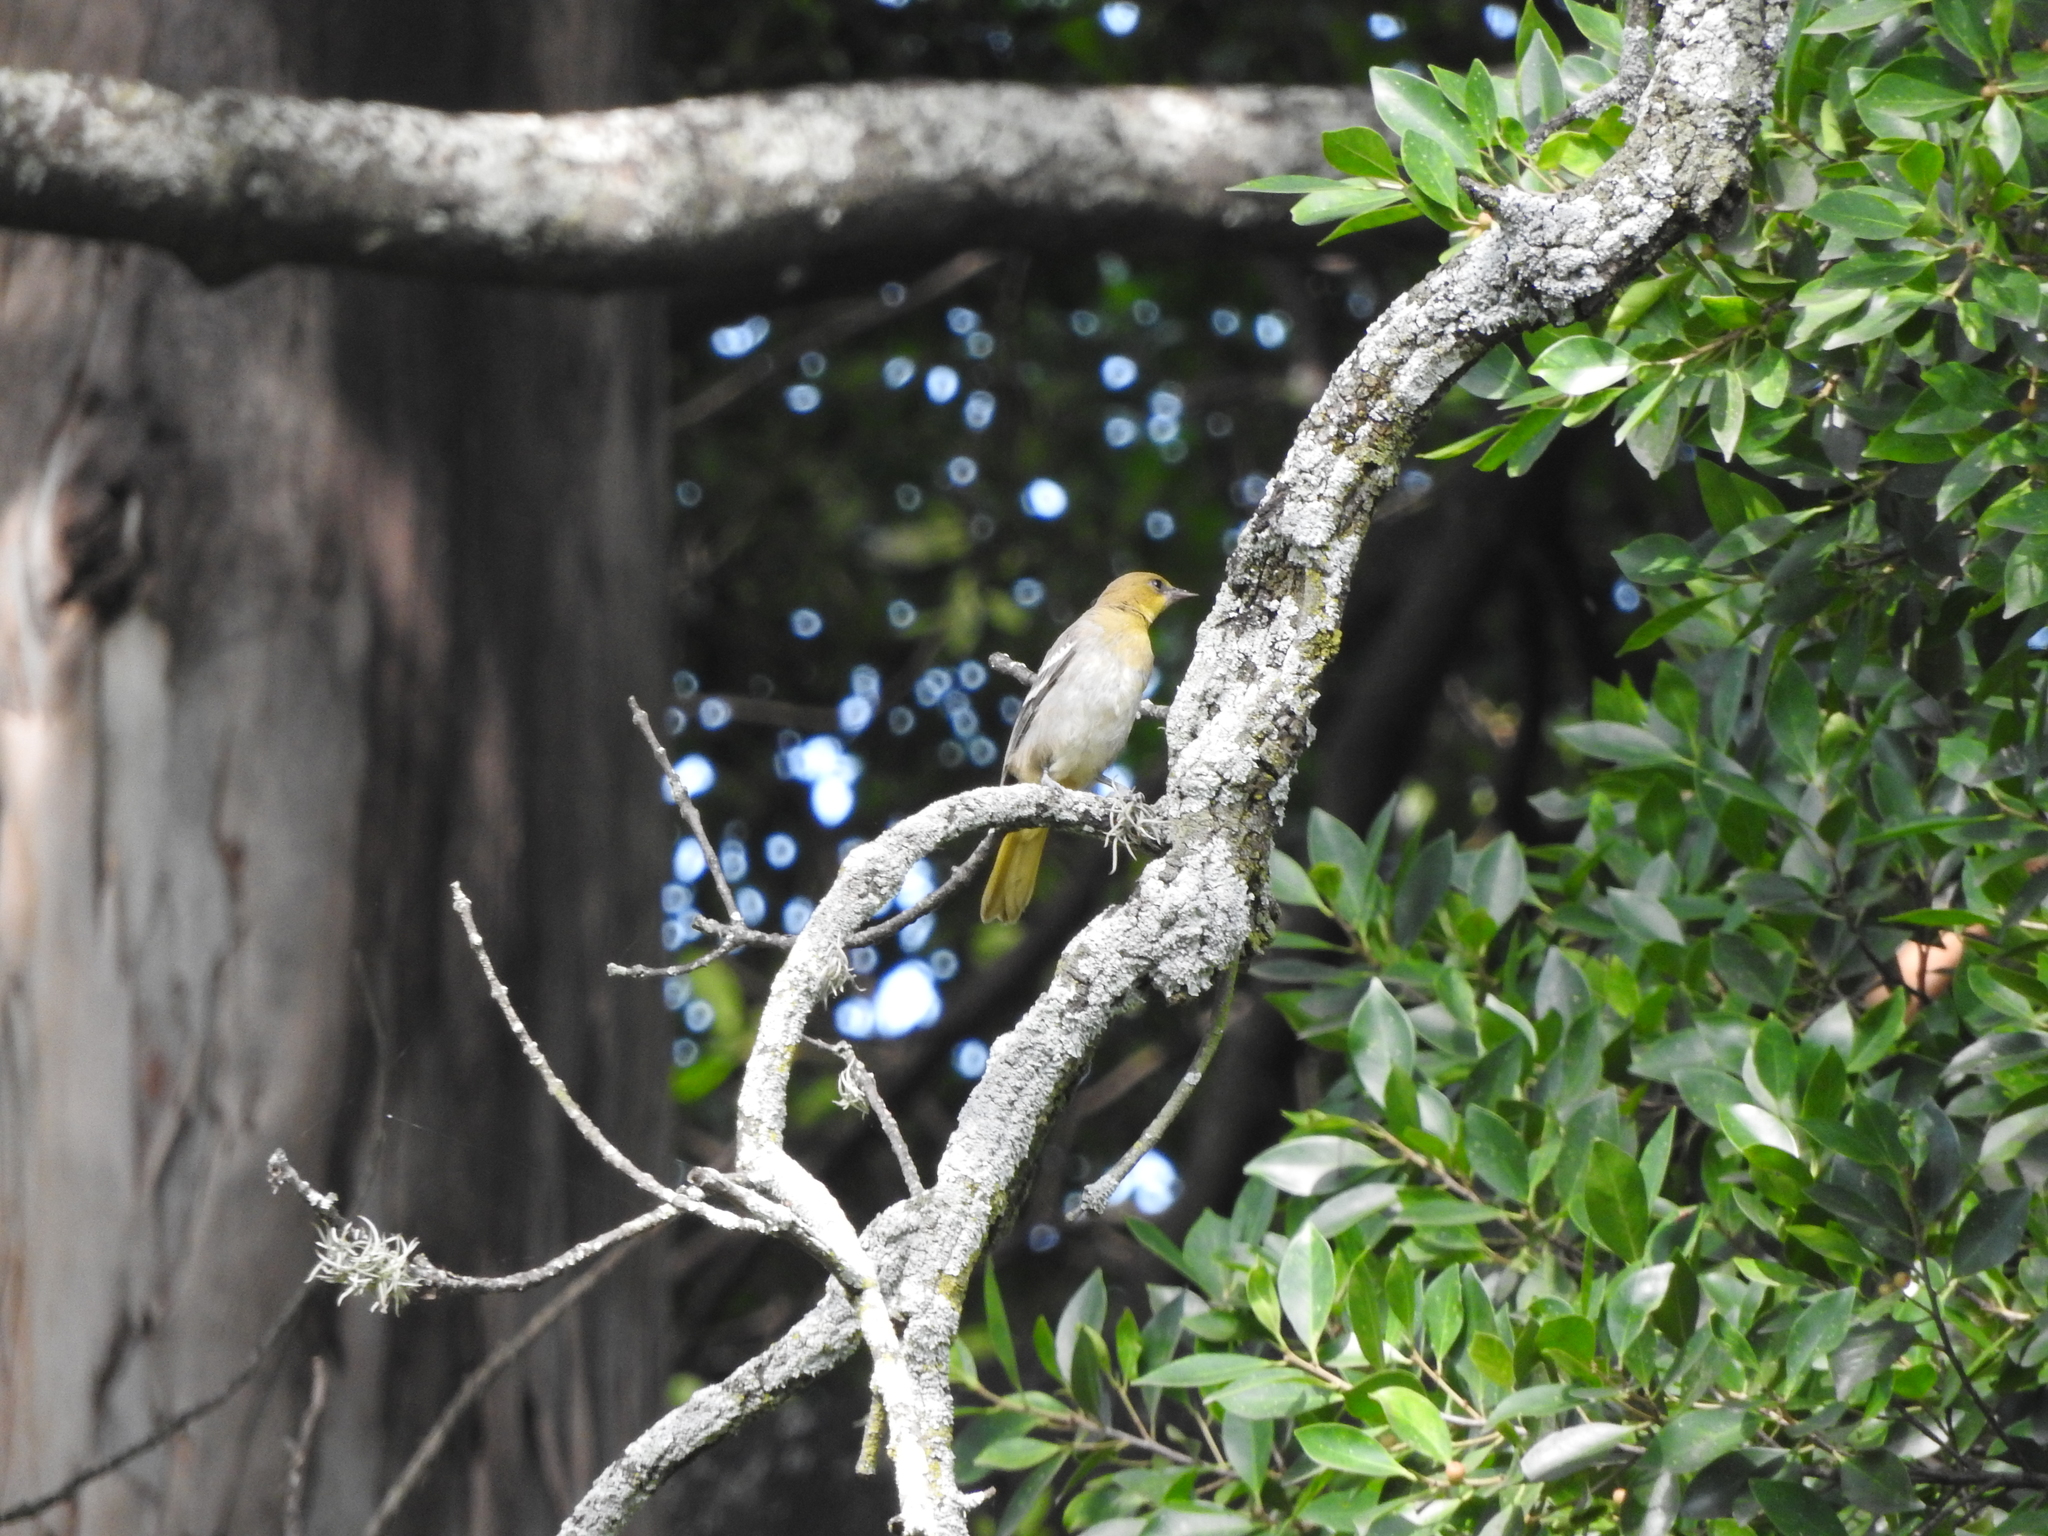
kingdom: Animalia
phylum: Chordata
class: Aves
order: Passeriformes
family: Icteridae
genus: Icterus
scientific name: Icterus bullockii
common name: Bullock's oriole
